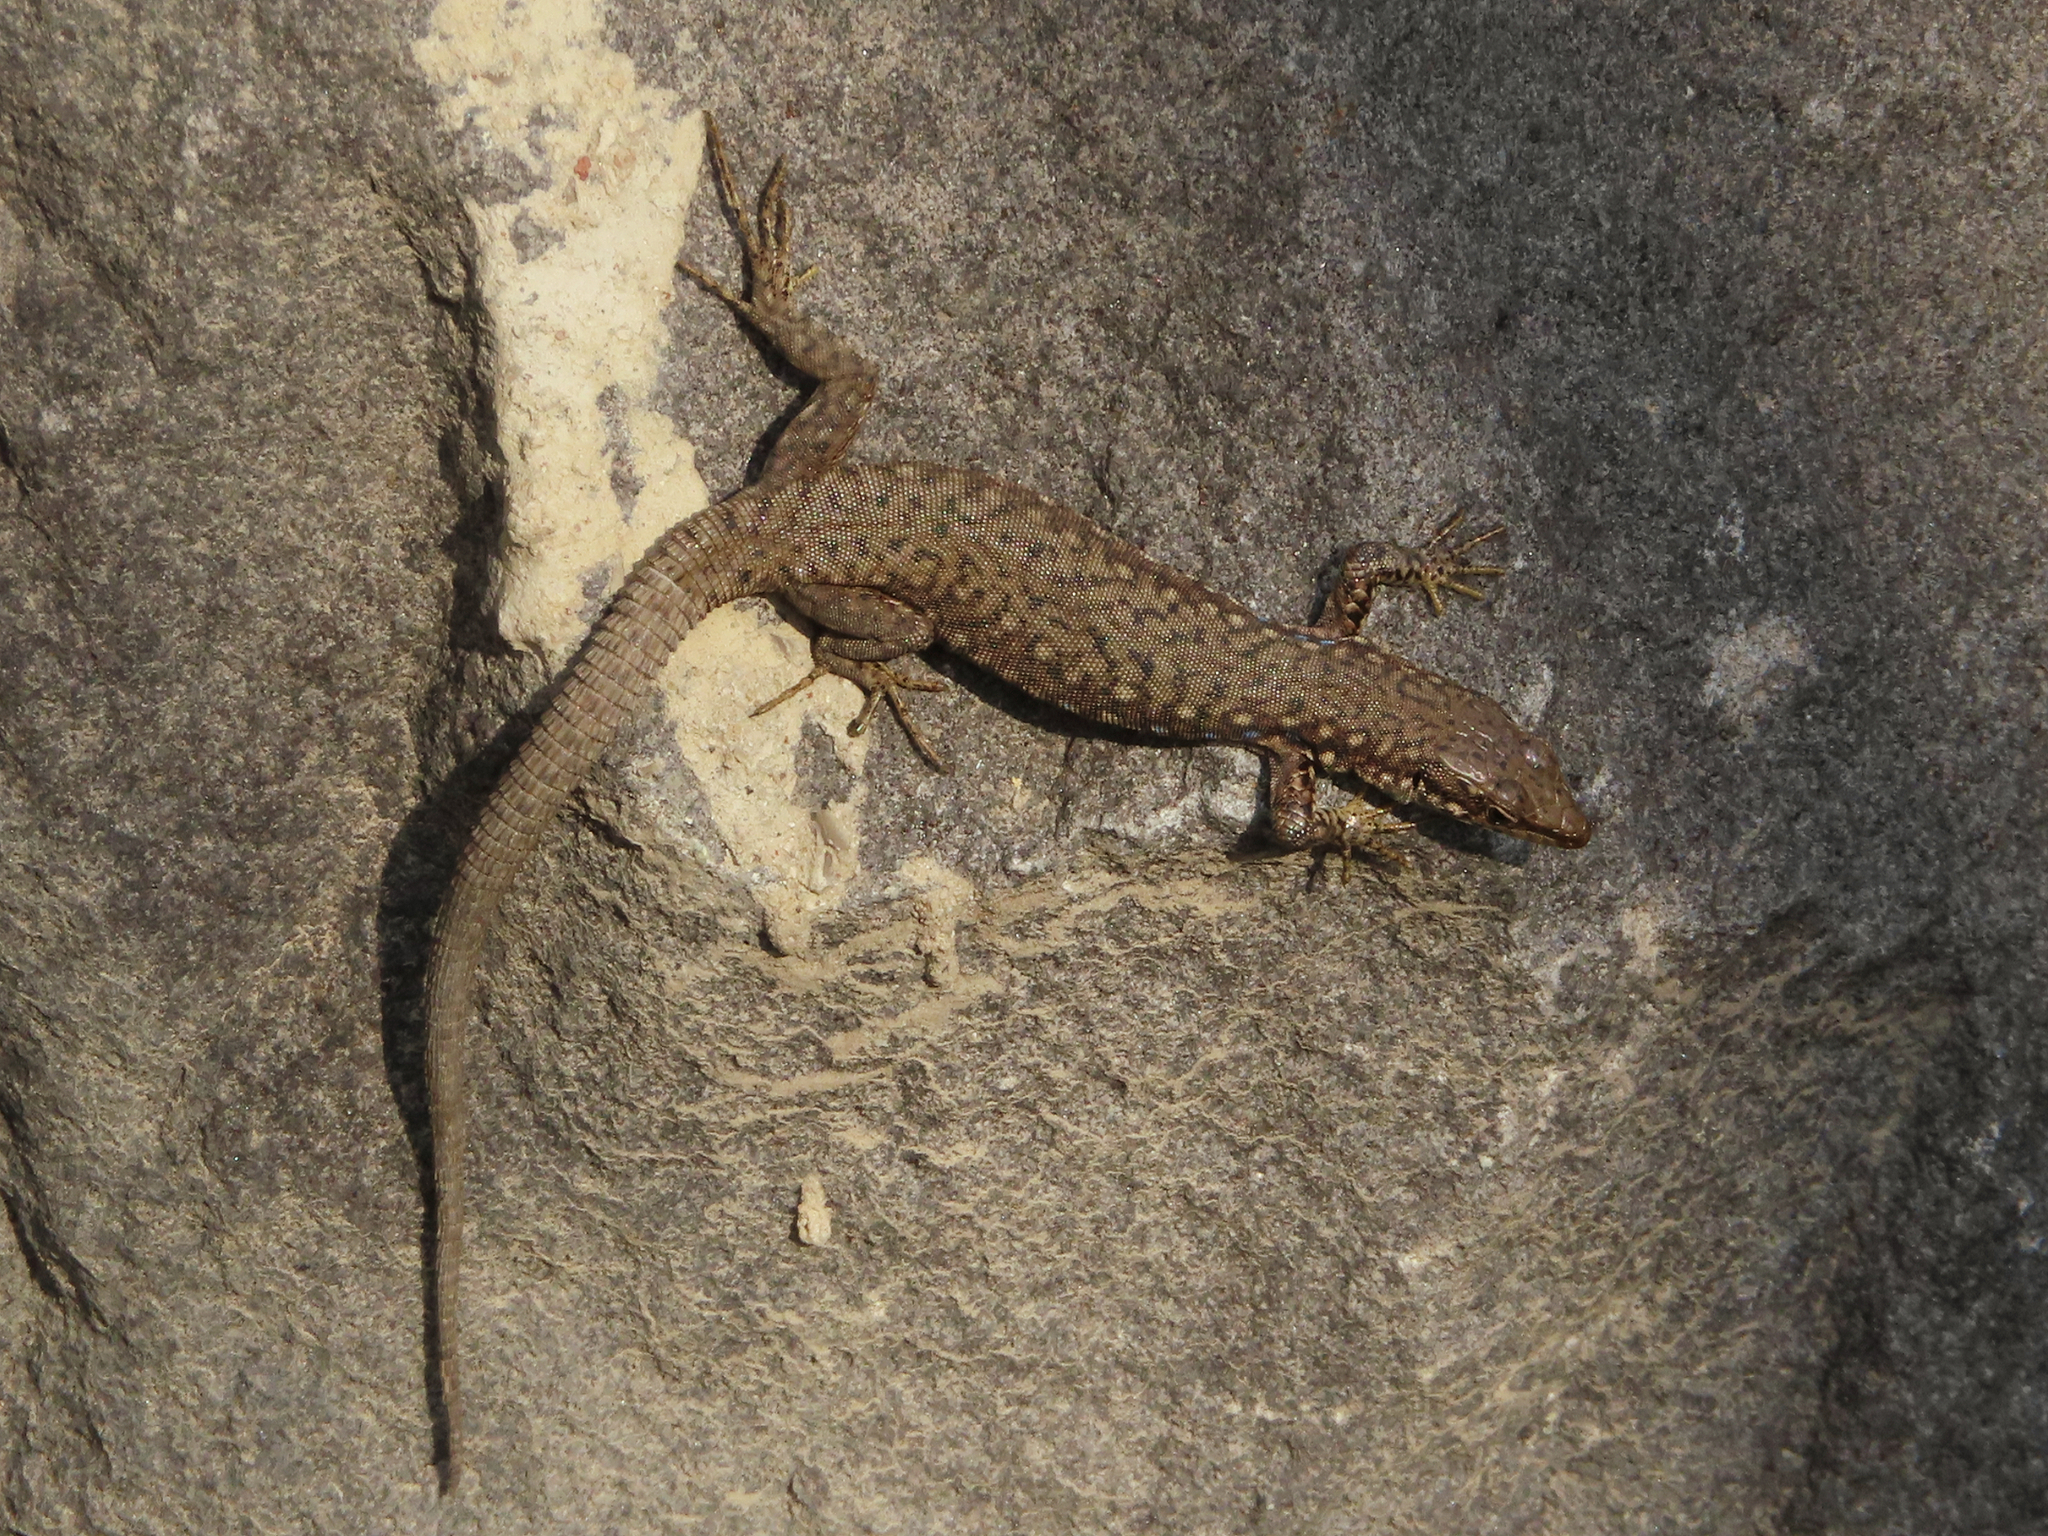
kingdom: Animalia
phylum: Chordata
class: Squamata
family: Lacertidae
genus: Darevskia
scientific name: Darevskia
